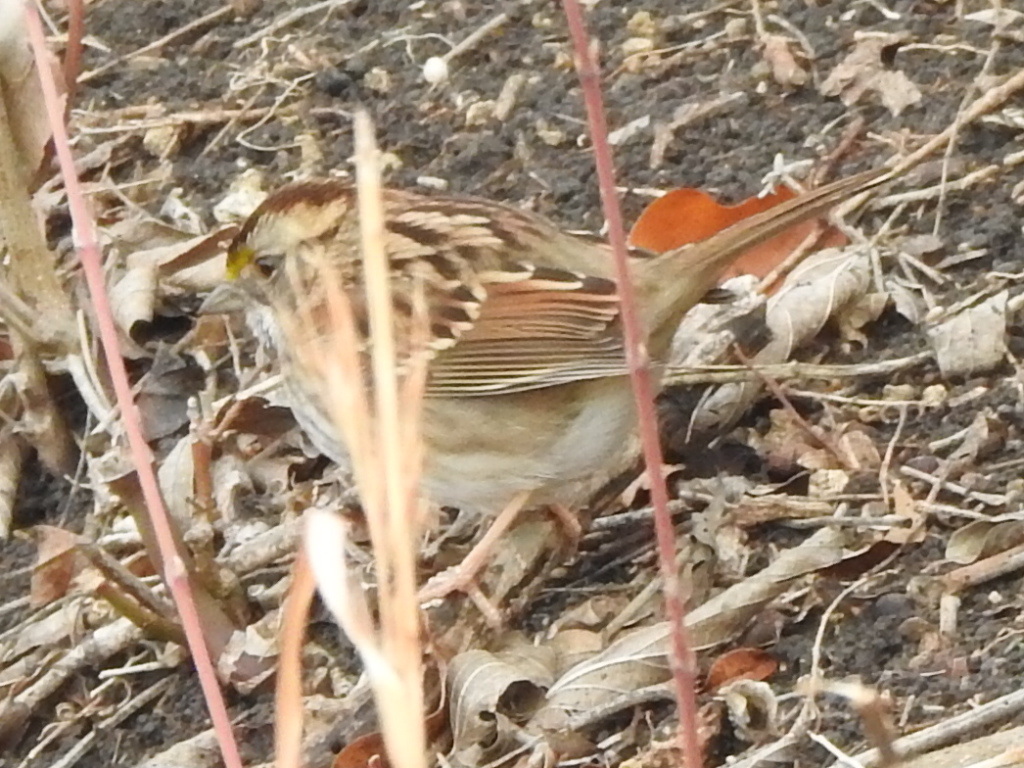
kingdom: Animalia
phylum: Chordata
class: Aves
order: Passeriformes
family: Passerellidae
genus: Zonotrichia
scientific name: Zonotrichia albicollis
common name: White-throated sparrow
